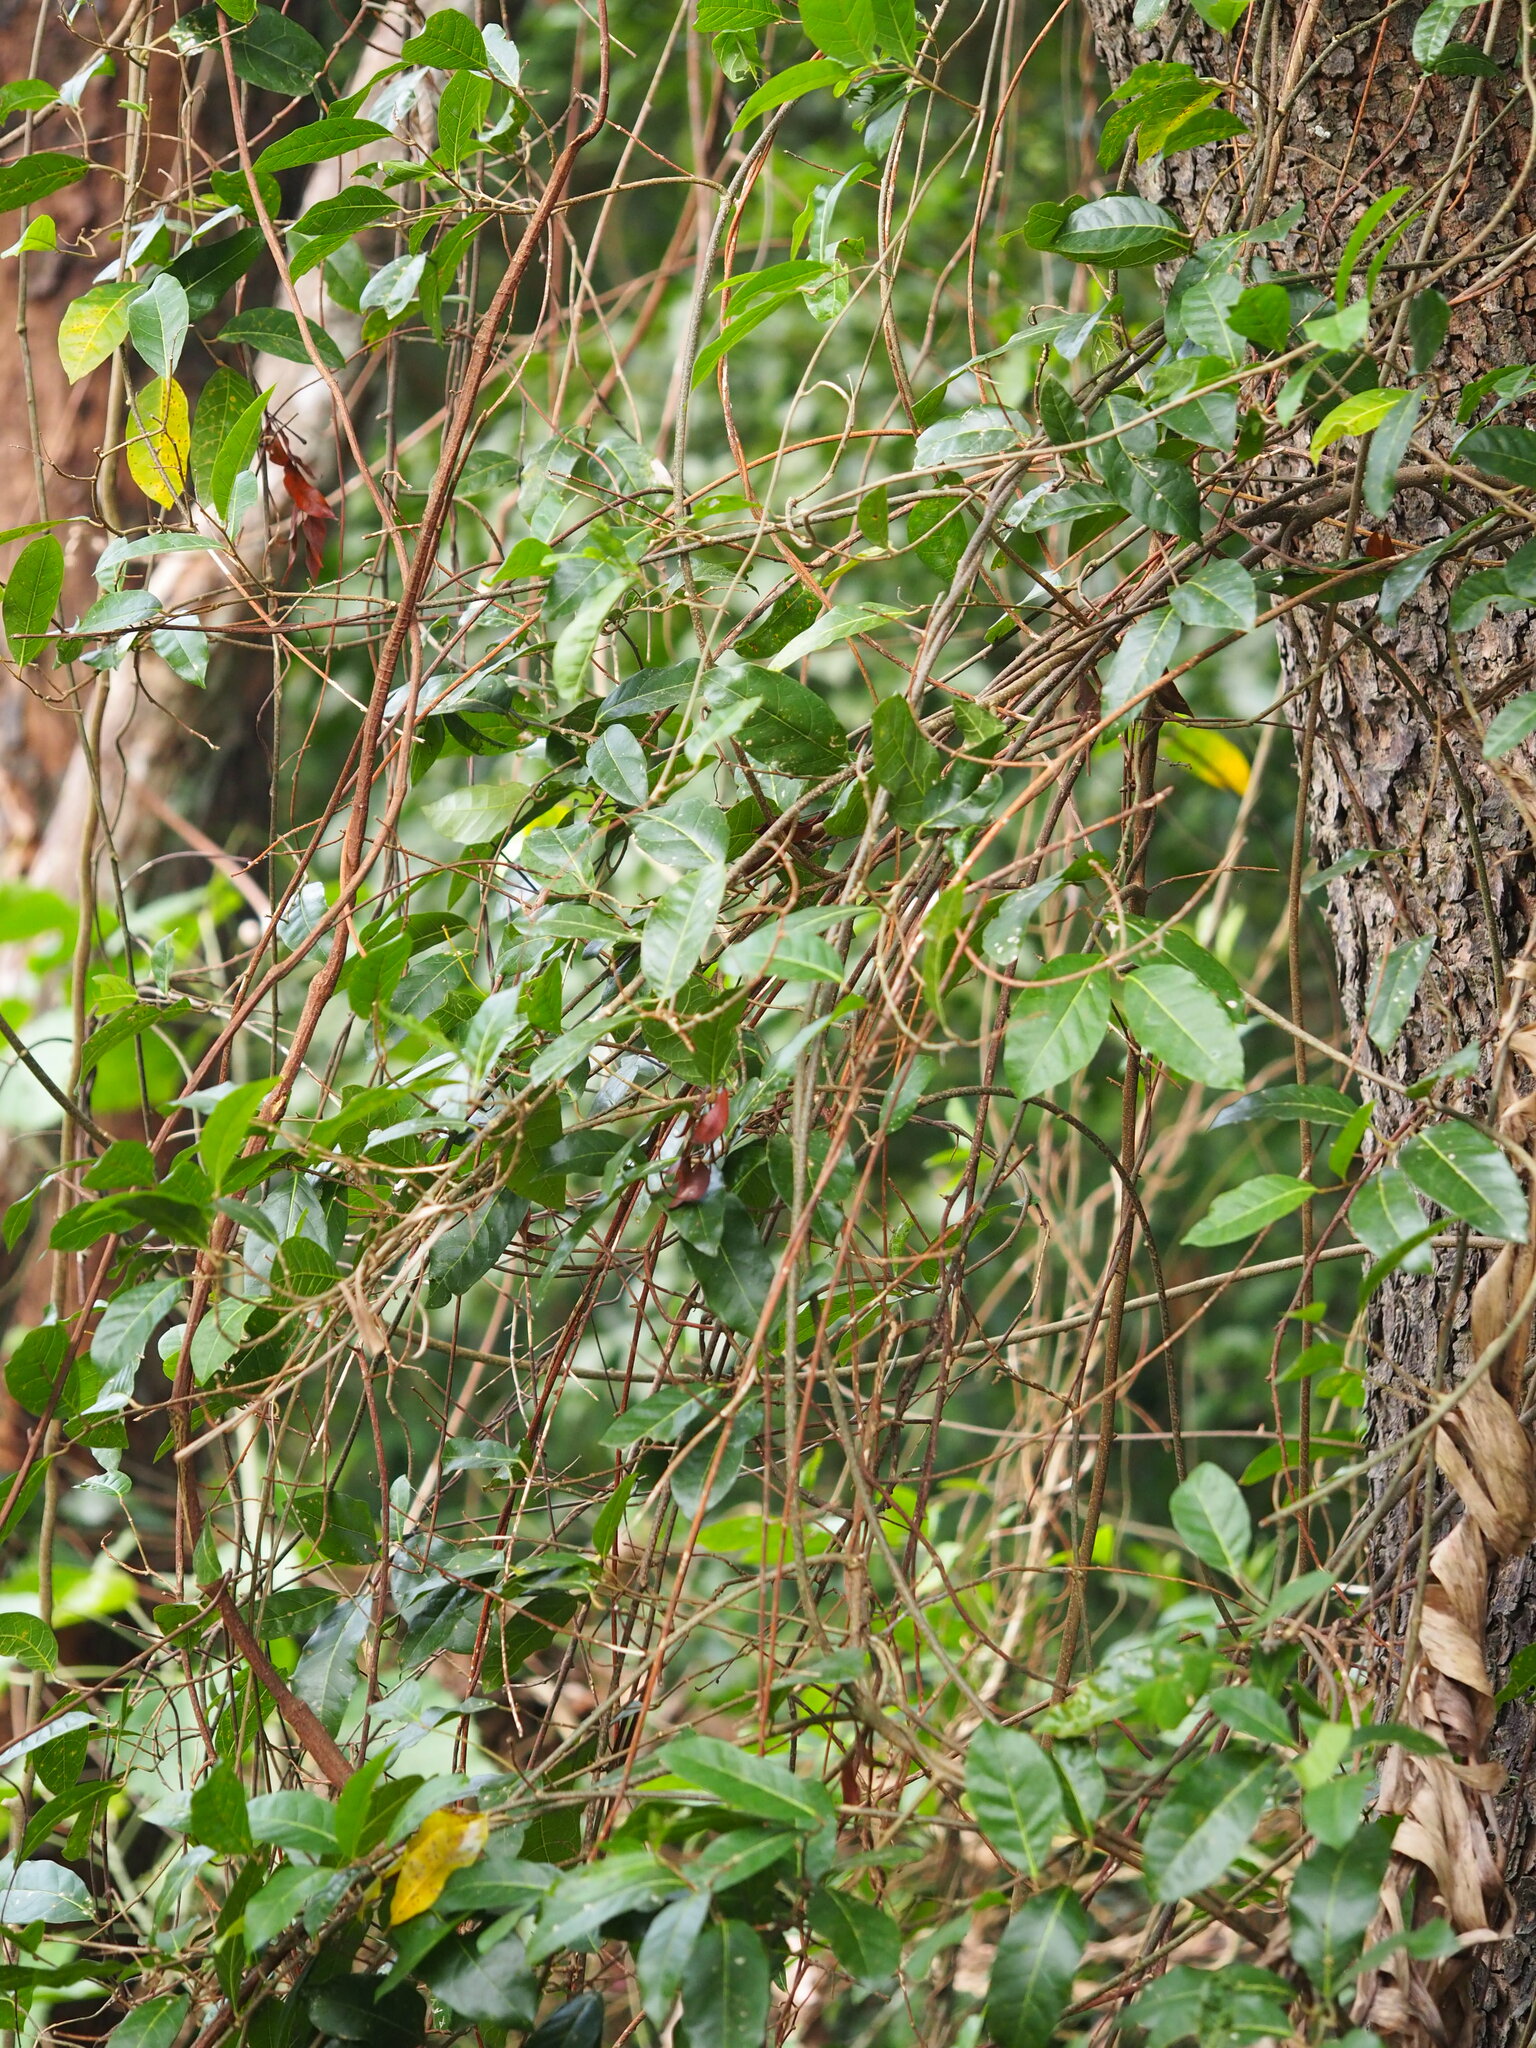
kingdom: Plantae
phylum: Tracheophyta
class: Magnoliopsida
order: Rosales
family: Moraceae
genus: Malaisia
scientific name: Malaisia scandens
